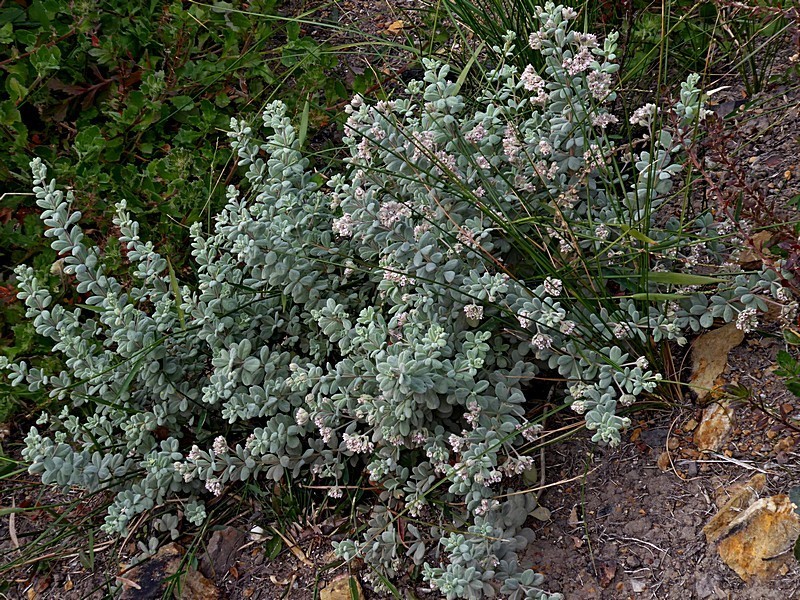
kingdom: Plantae
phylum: Tracheophyta
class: Magnoliopsida
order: Sapindales
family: Rutaceae
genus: Zieria
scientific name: Zieria littoralis
